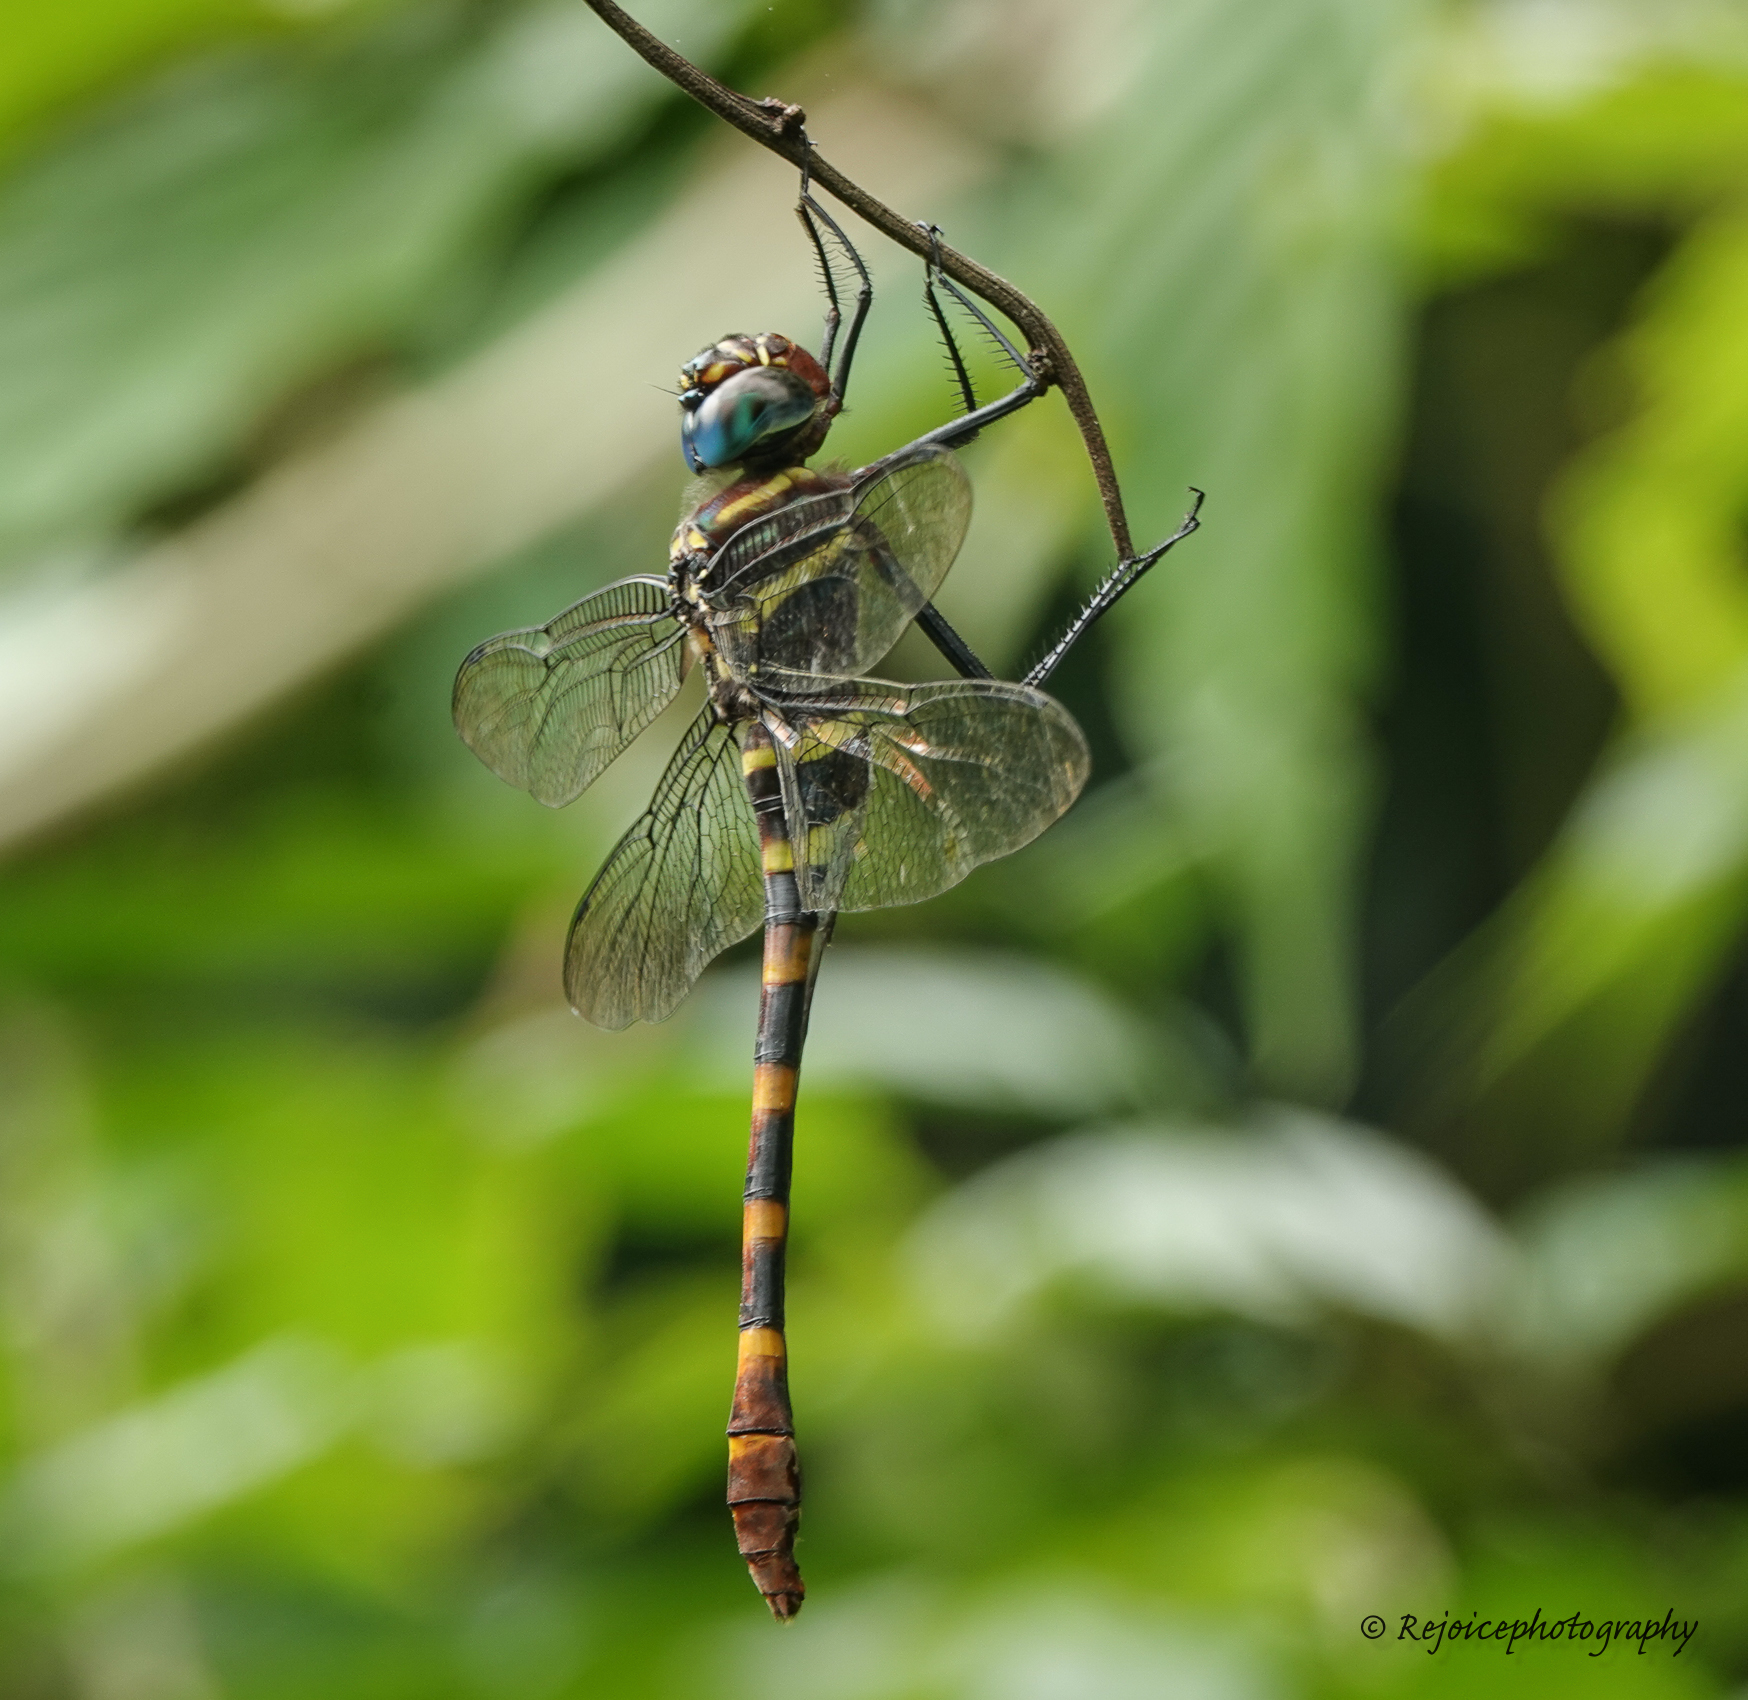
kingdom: Animalia
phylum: Arthropoda
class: Insecta
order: Odonata
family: Macromiidae
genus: Epophthalmia
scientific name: Epophthalmia vittata
